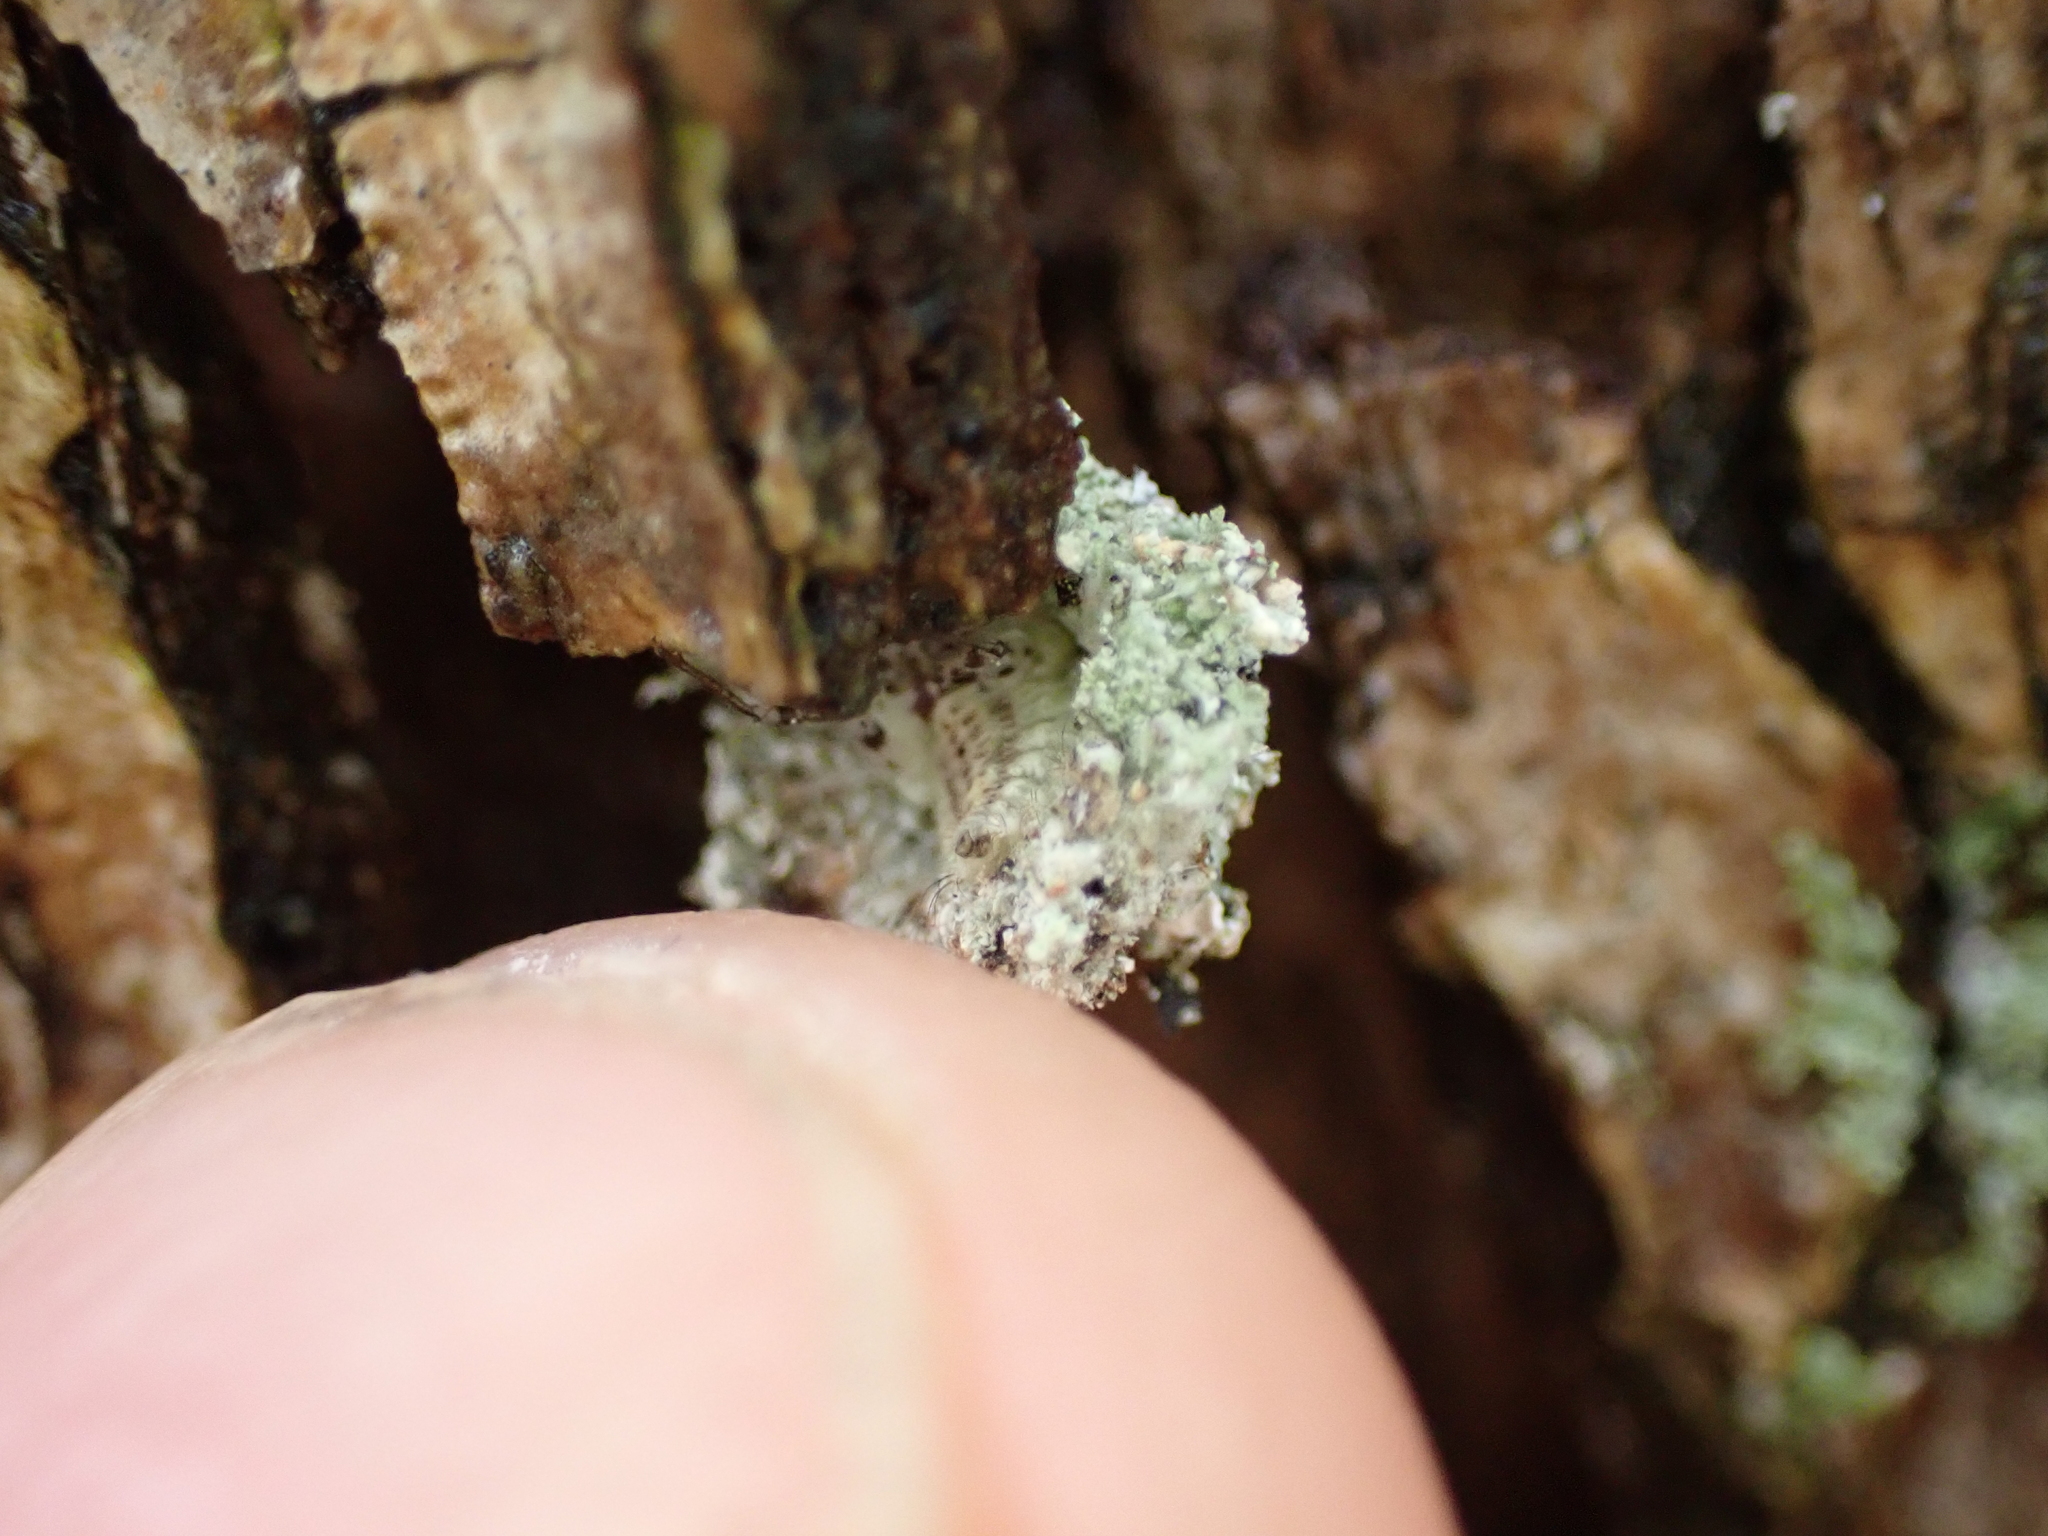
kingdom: Animalia
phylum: Arthropoda
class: Insecta
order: Neuroptera
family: Chrysopidae
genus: Leucochrysa
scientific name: Leucochrysa pavida
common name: Lichen-carrying green lacewing
